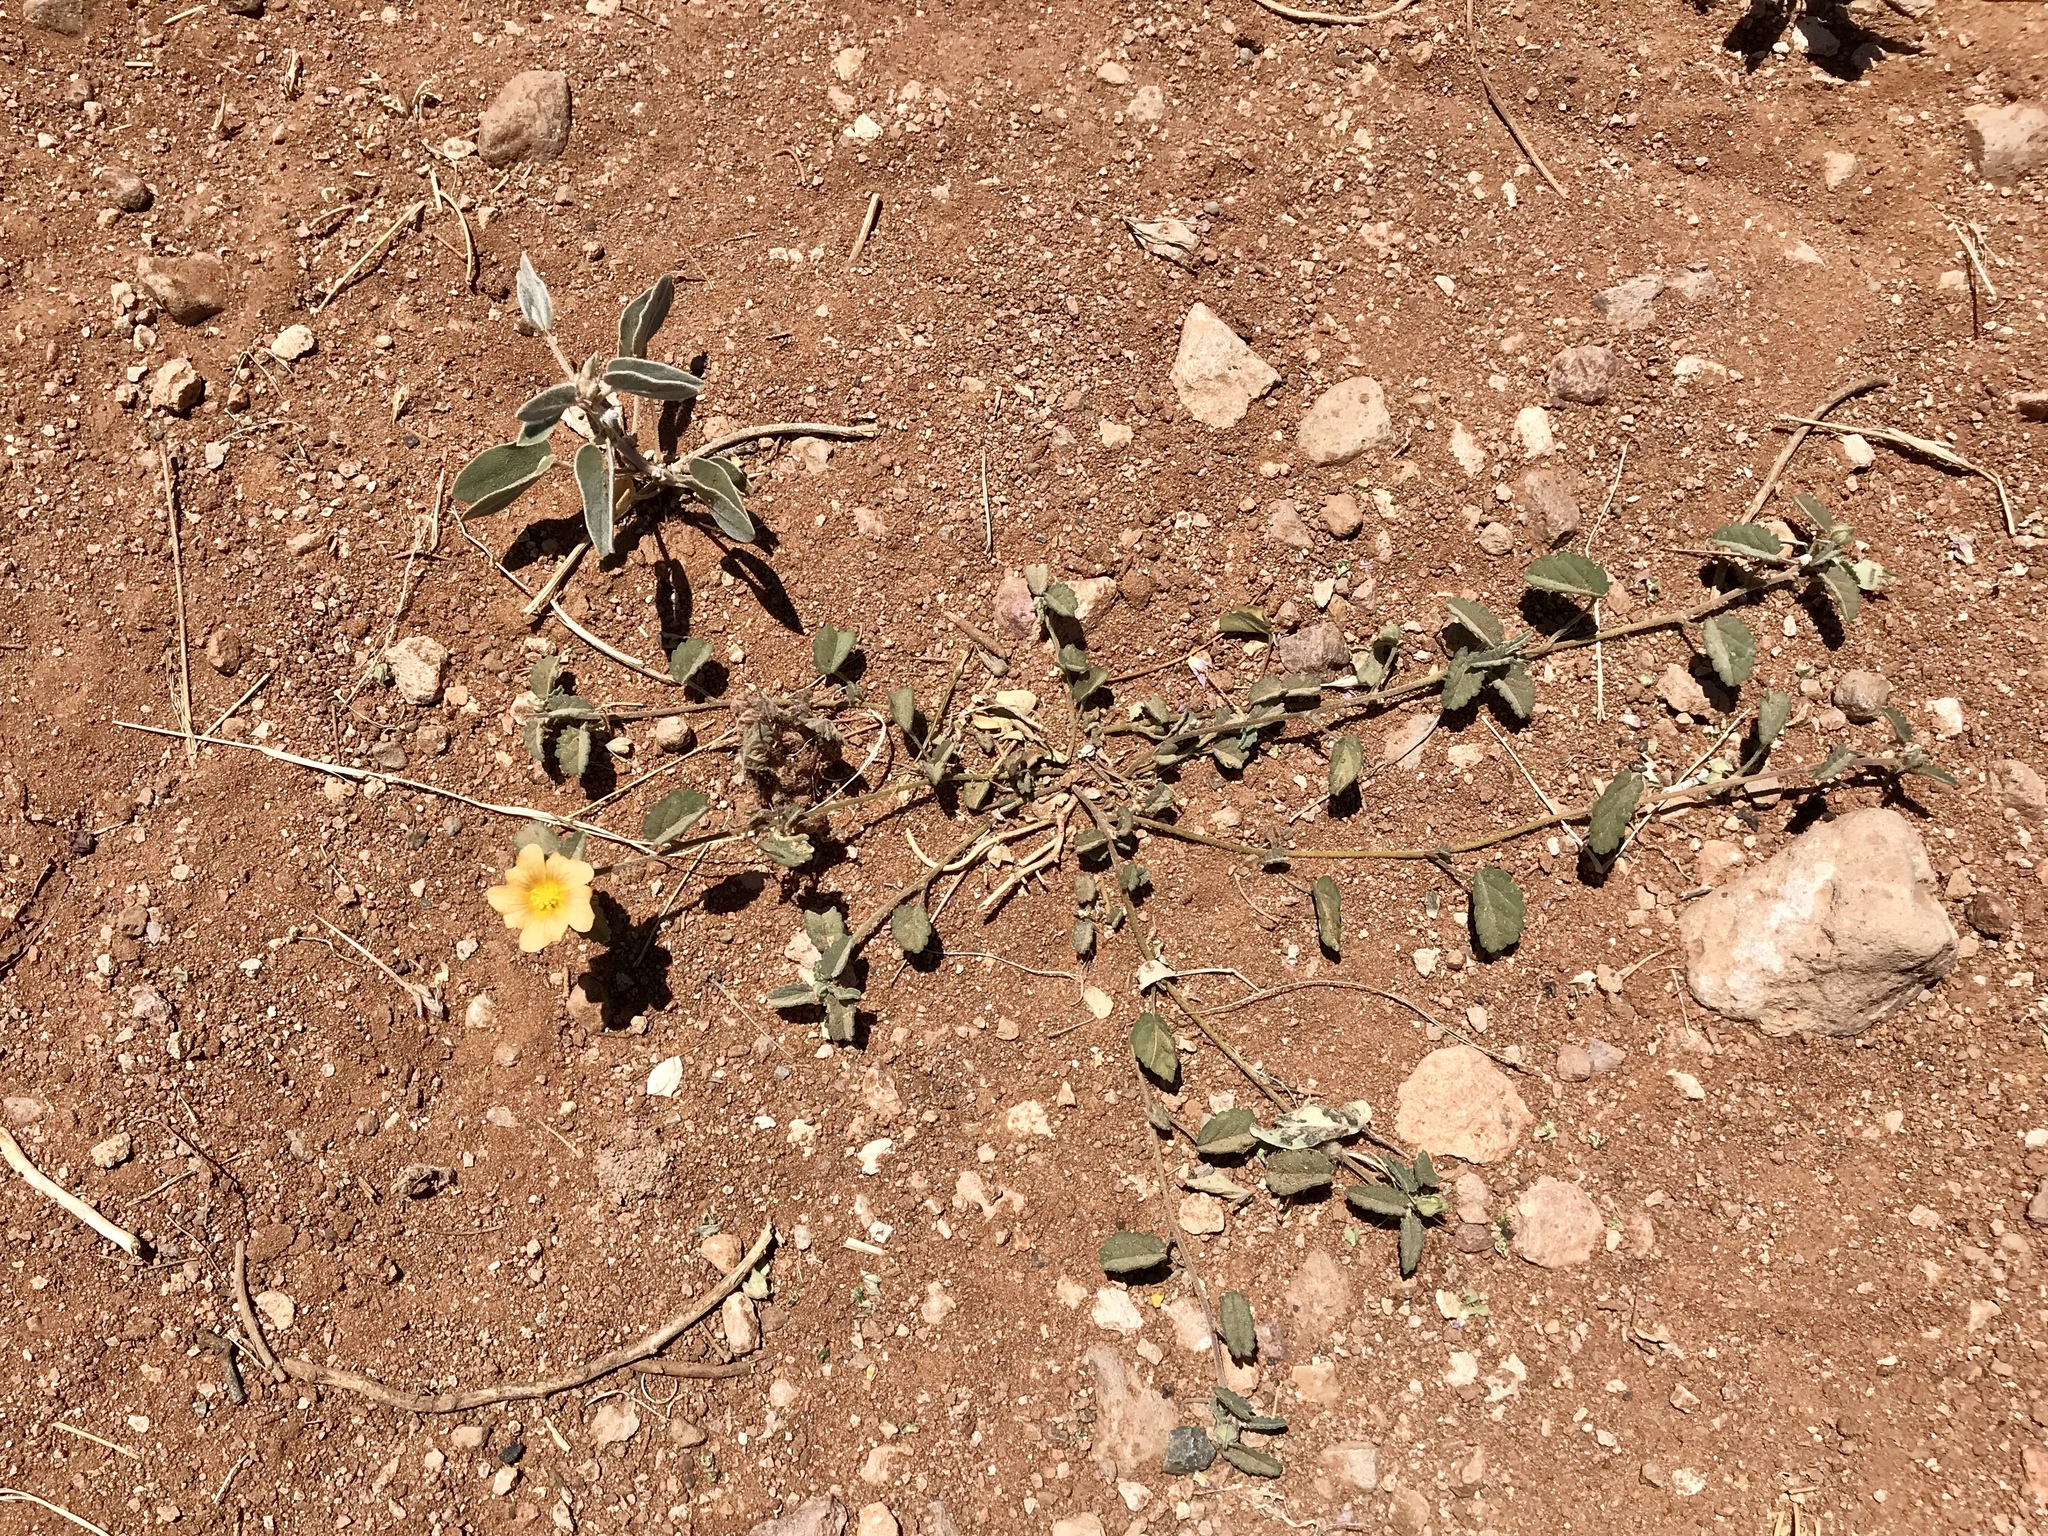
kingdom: Plantae
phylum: Tracheophyta
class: Magnoliopsida
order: Malvales
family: Malvaceae
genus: Sida
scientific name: Sida abutilifolia
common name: Spreading fanpetals
